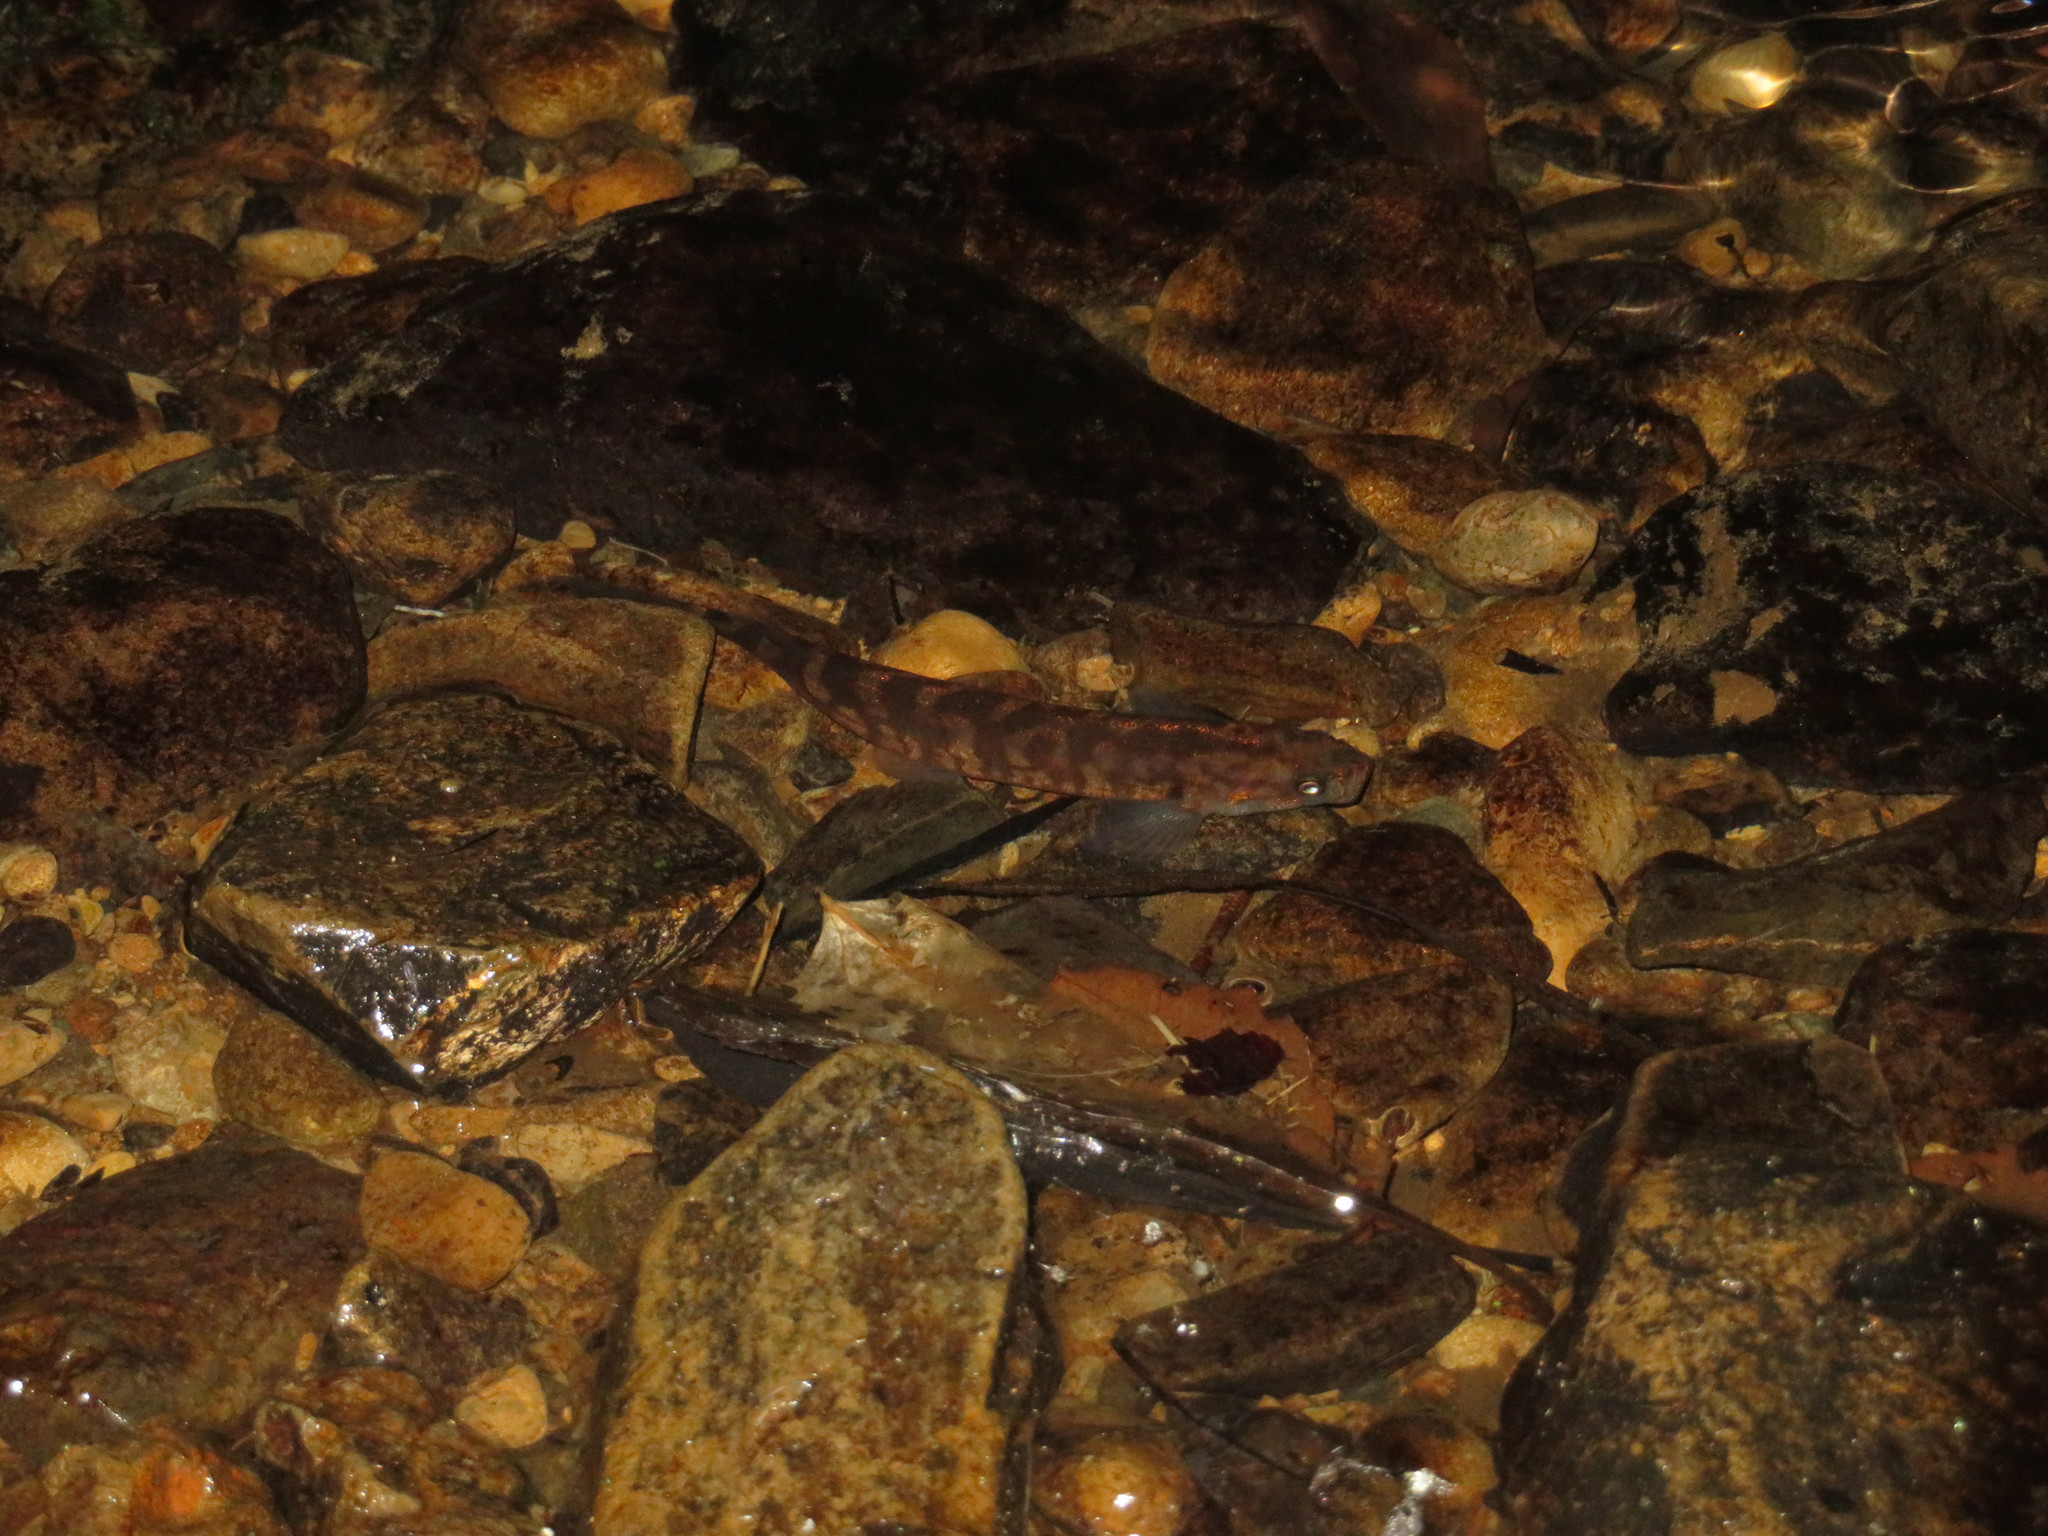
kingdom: Animalia
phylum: Chordata
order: Osmeriformes
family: Galaxiidae
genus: Galaxias
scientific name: Galaxias fasciatus
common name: Banded kokopu
